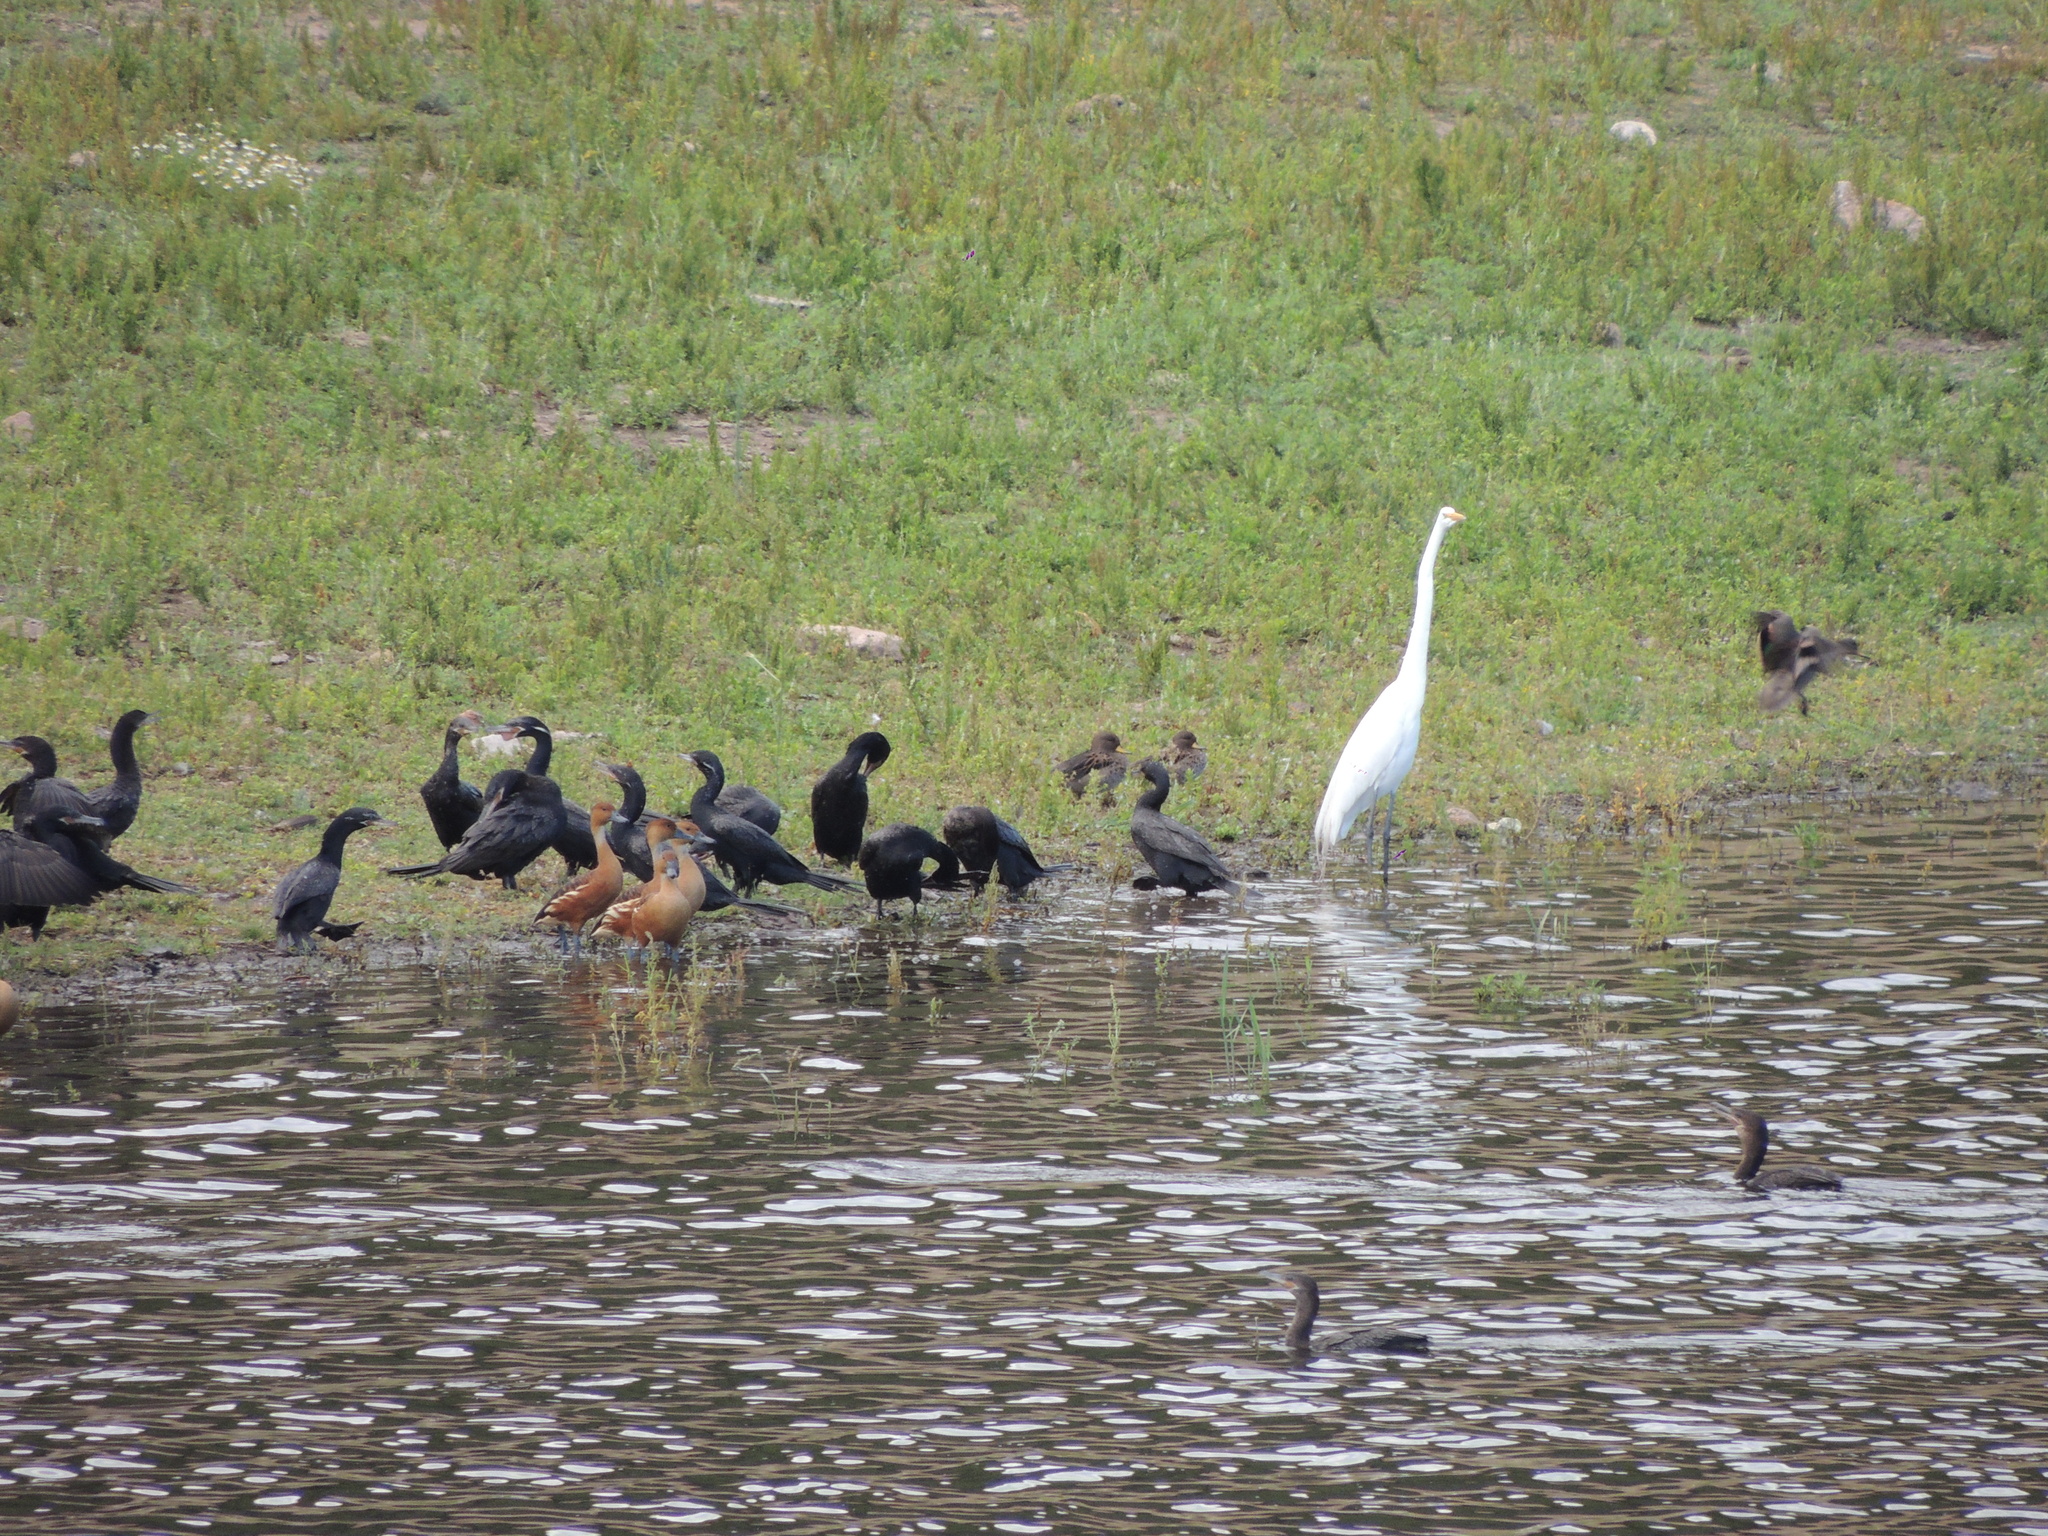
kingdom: Animalia
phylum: Chordata
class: Aves
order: Pelecaniformes
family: Ardeidae
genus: Ardea
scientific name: Ardea alba
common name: Great egret
